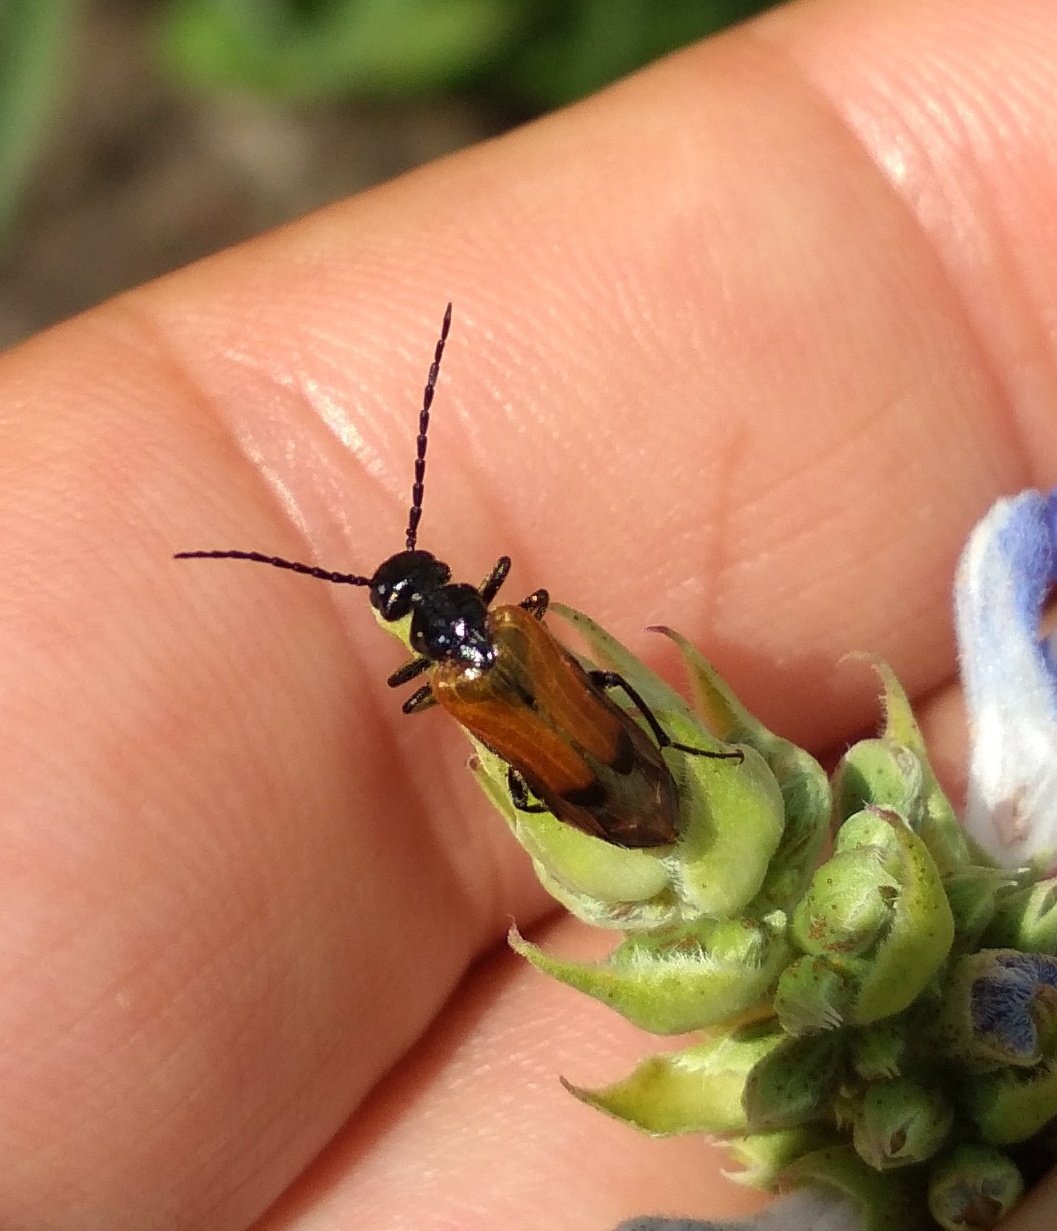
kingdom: Animalia
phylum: Arthropoda
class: Insecta
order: Coleoptera
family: Meloidae
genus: Stenoria
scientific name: Stenoria analis
